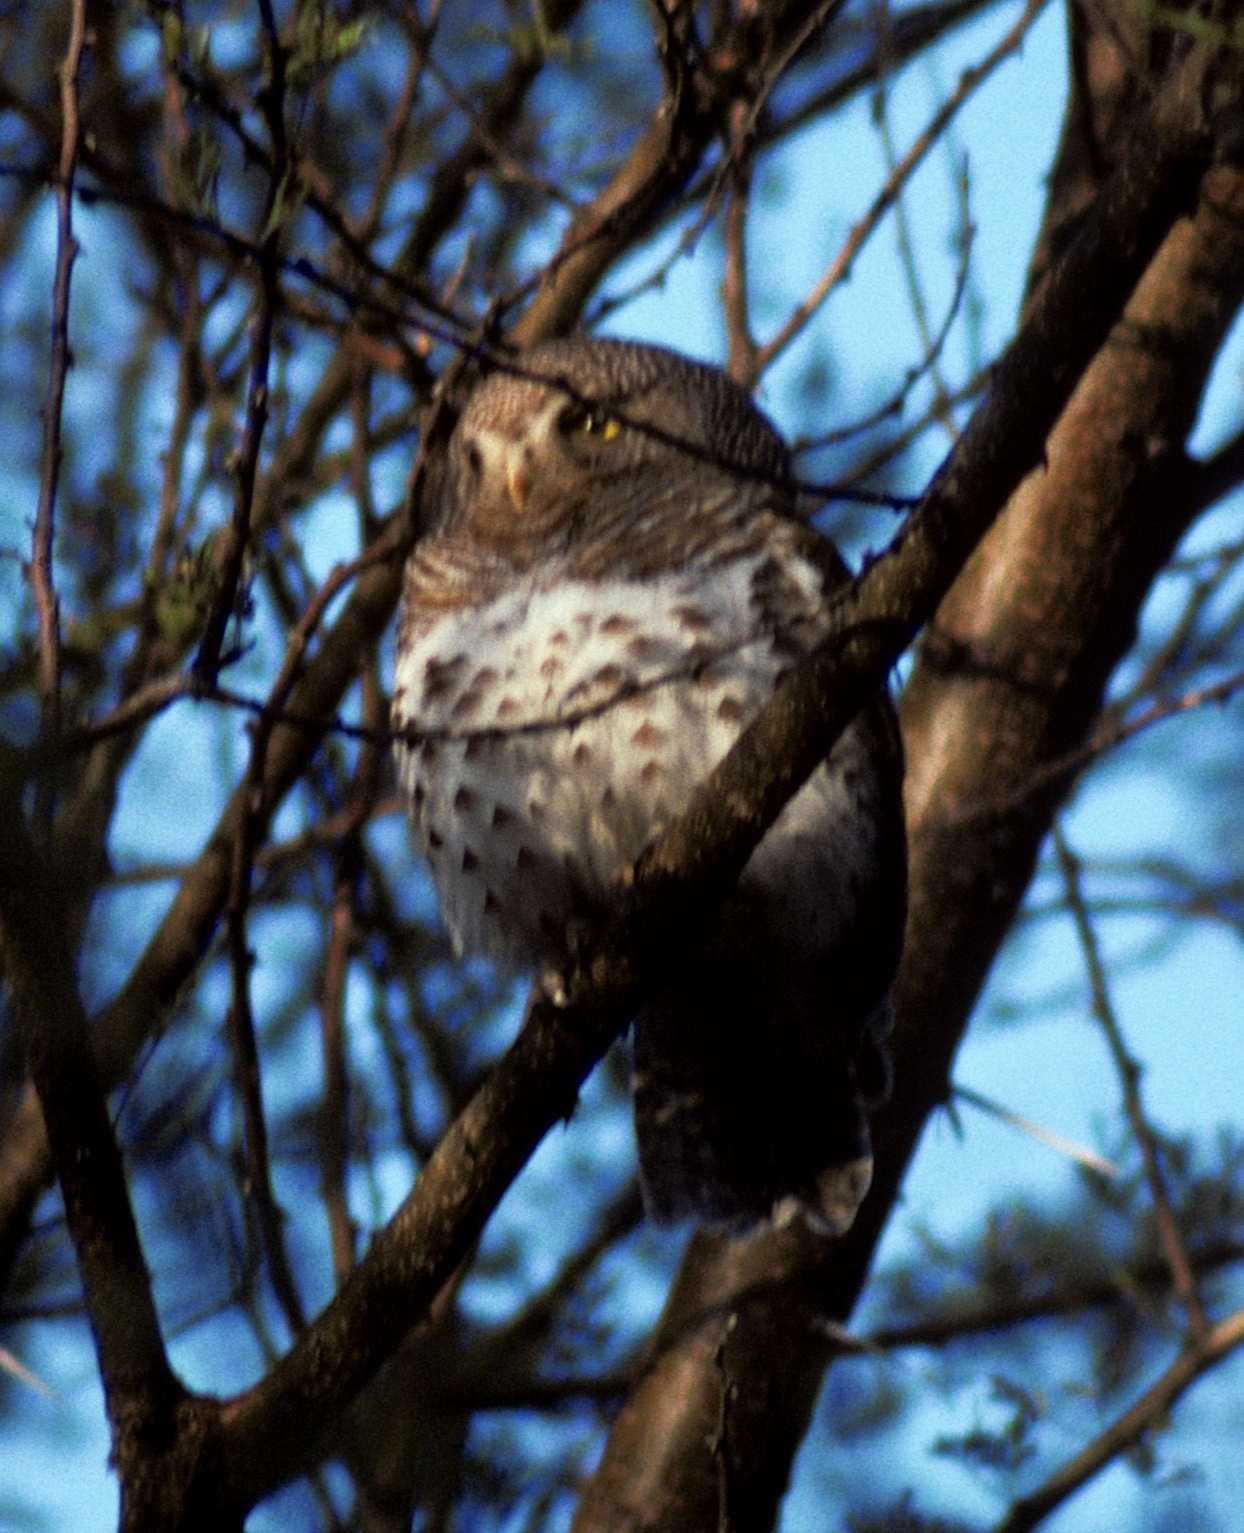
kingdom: Animalia
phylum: Chordata
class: Aves
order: Strigiformes
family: Strigidae
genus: Glaucidium
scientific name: Glaucidium capense
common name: African barred owlet
